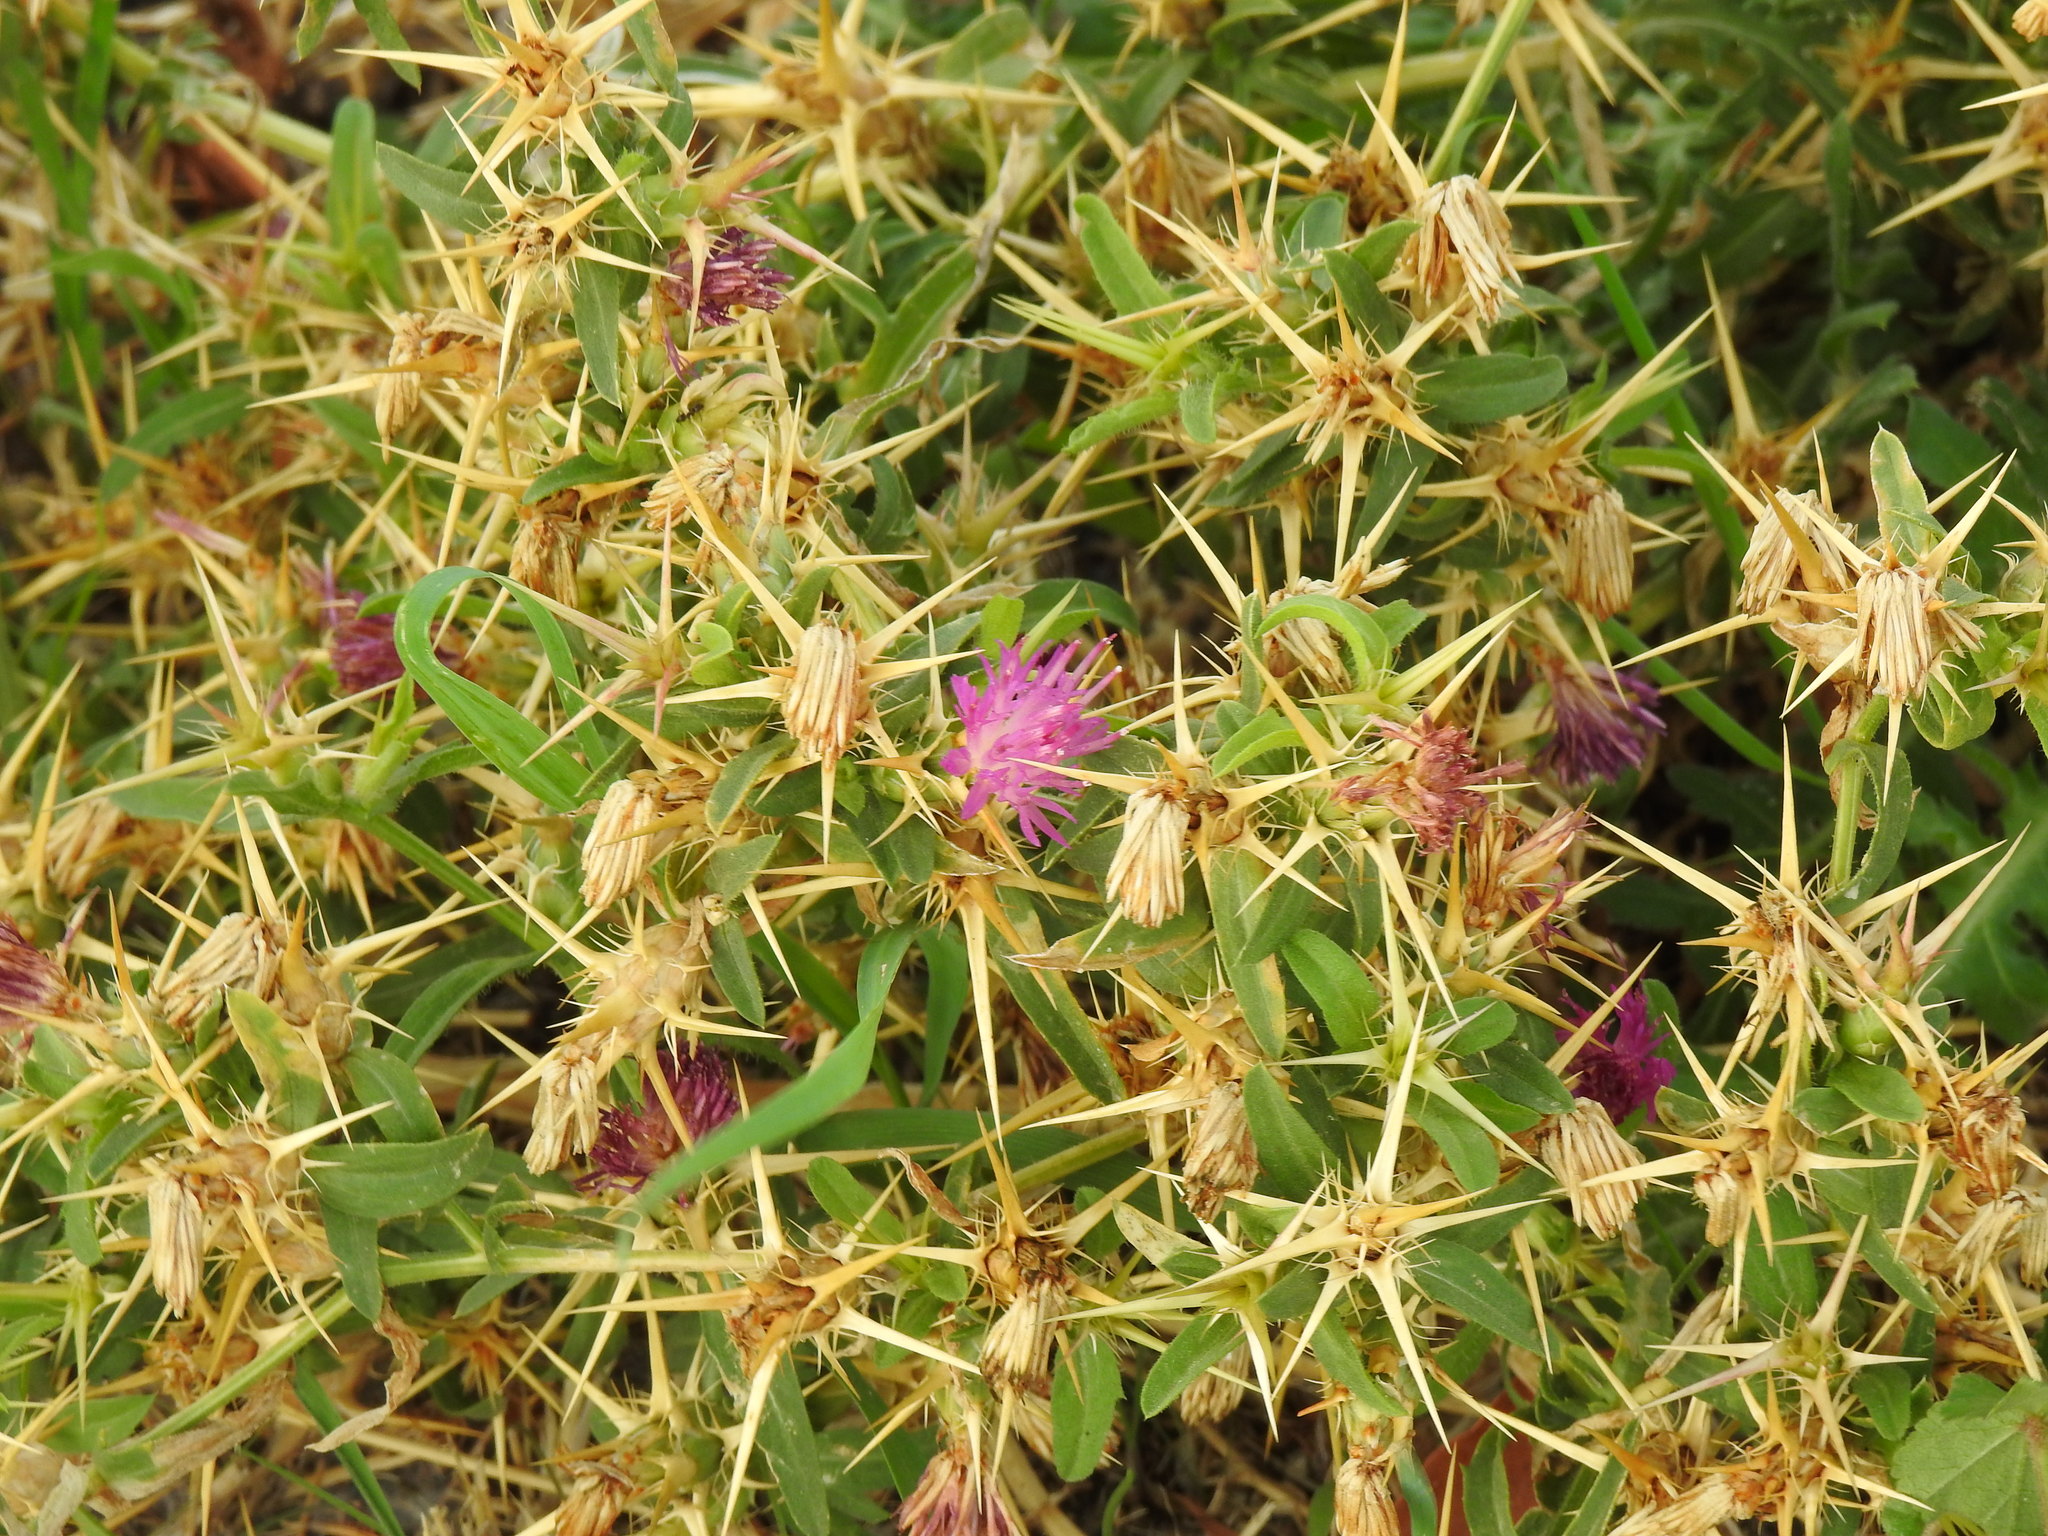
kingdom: Plantae
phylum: Tracheophyta
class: Magnoliopsida
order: Asterales
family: Asteraceae
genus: Centaurea
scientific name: Centaurea calcitrapa
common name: Red star-thistle
